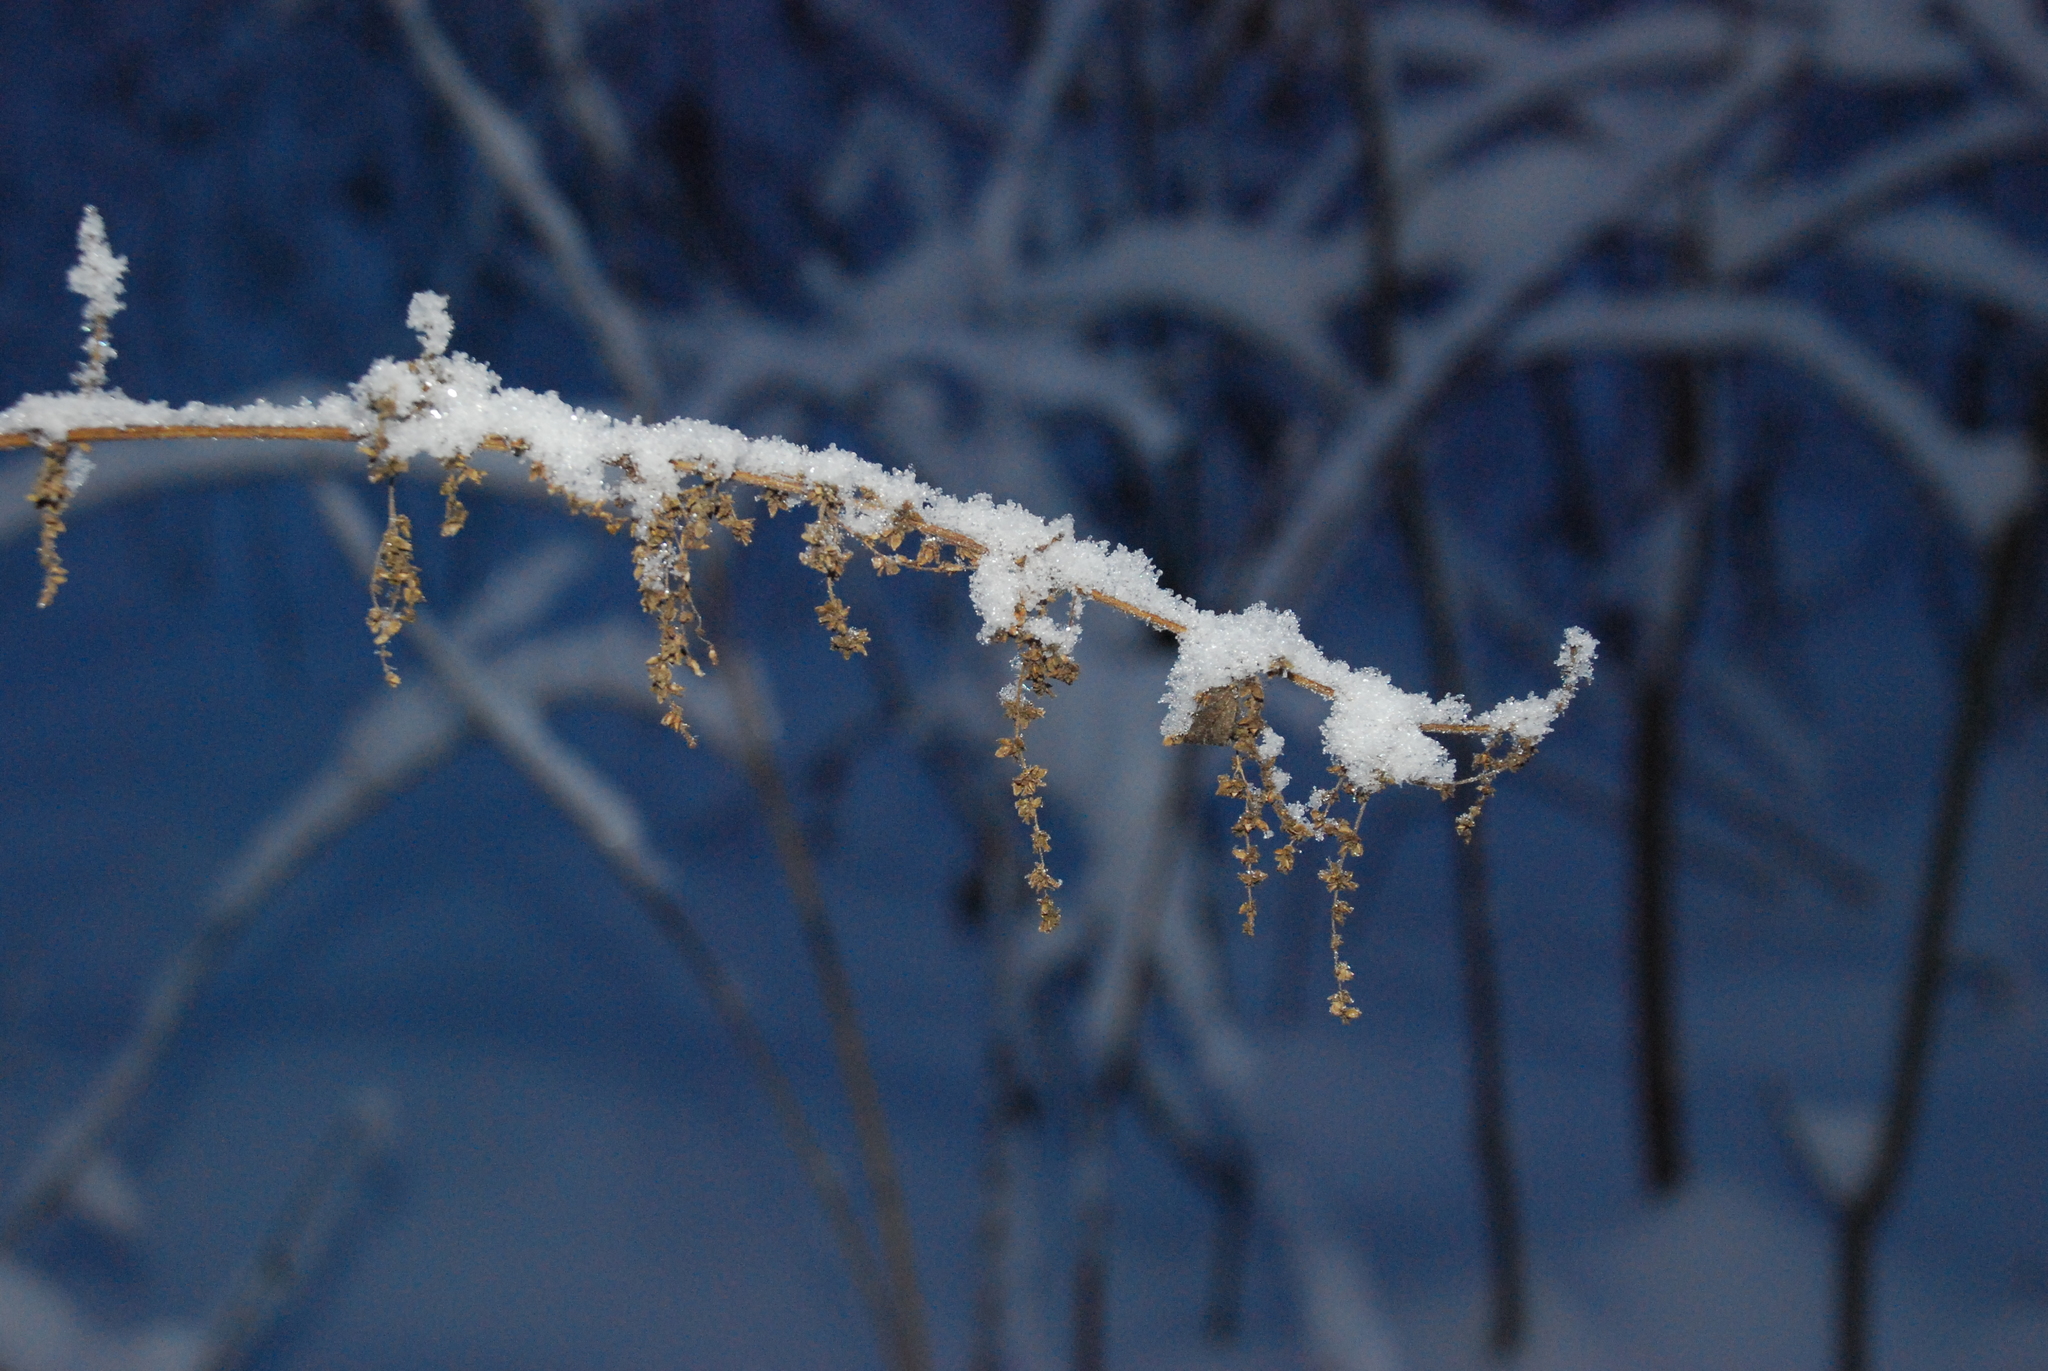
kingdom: Plantae
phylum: Tracheophyta
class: Magnoliopsida
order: Rosales
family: Urticaceae
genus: Urtica
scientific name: Urtica dioica
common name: Common nettle
